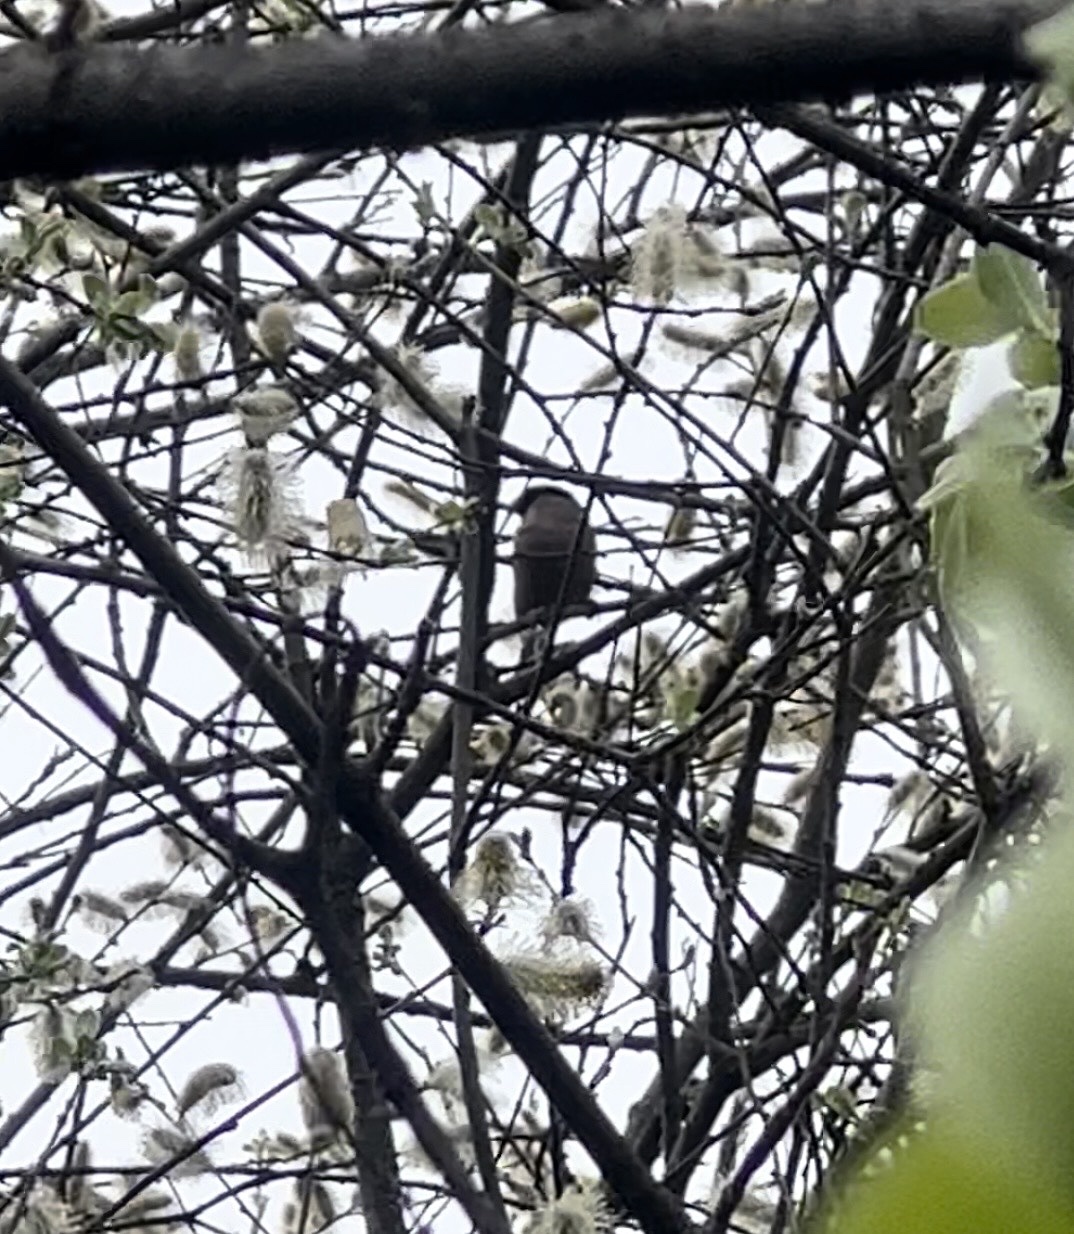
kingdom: Animalia
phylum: Chordata
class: Aves
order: Passeriformes
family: Fringillidae
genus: Pyrrhula
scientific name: Pyrrhula pyrrhula
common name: Eurasian bullfinch
